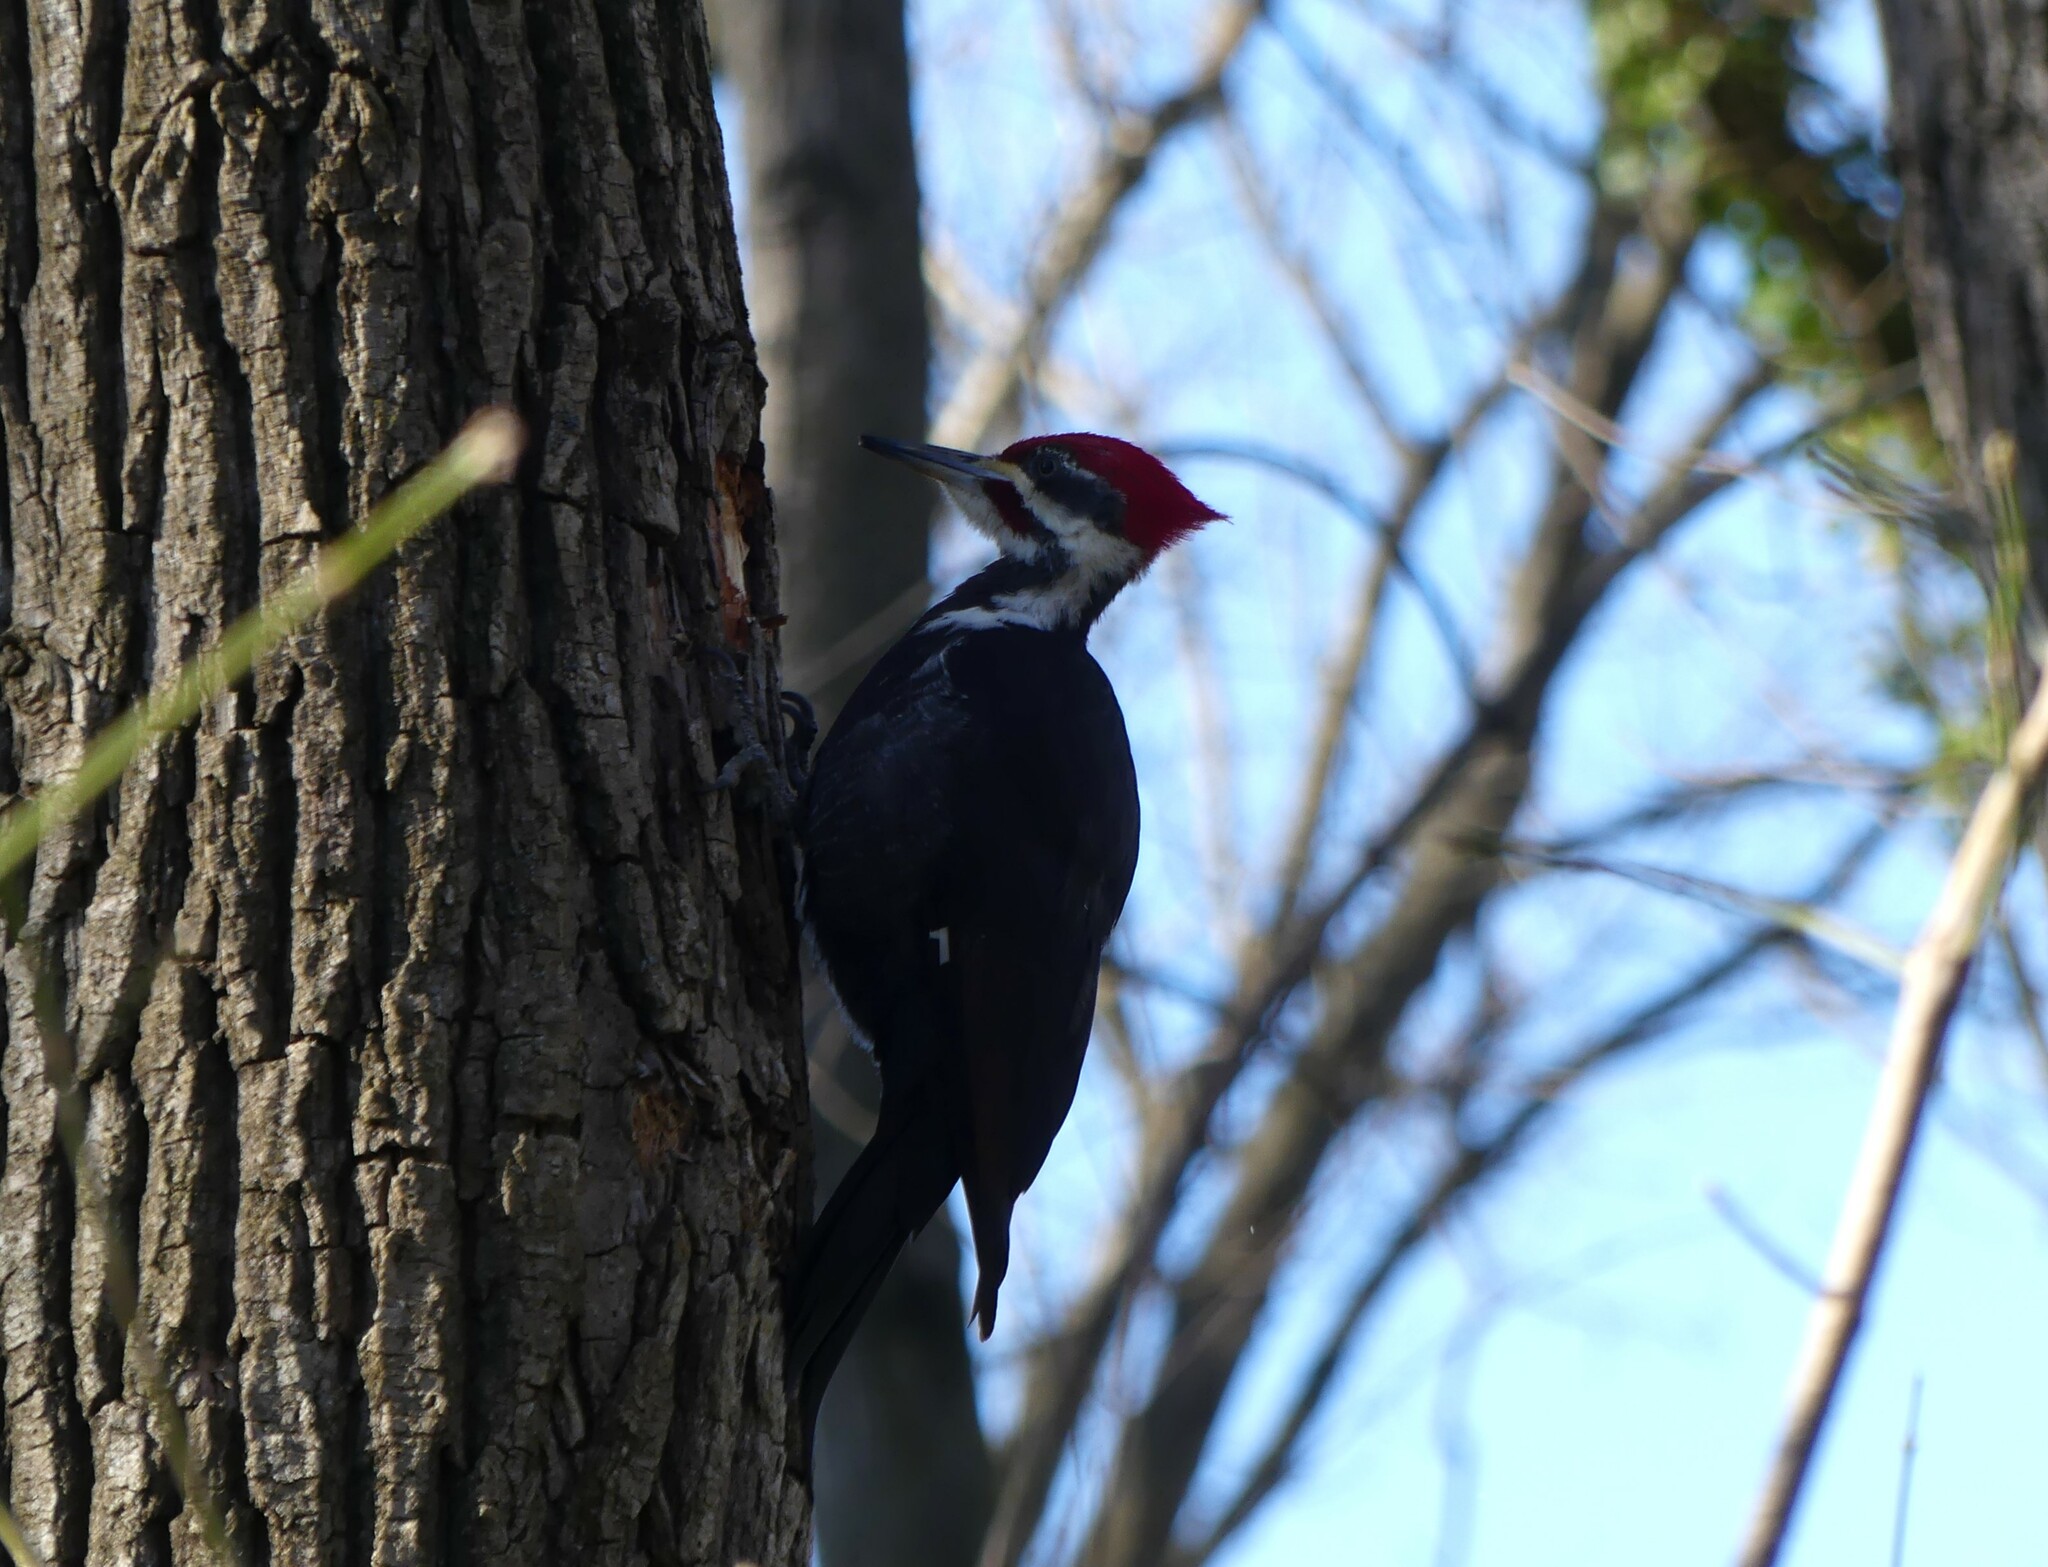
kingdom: Animalia
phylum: Chordata
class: Aves
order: Piciformes
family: Picidae
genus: Dryocopus
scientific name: Dryocopus pileatus
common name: Pileated woodpecker
